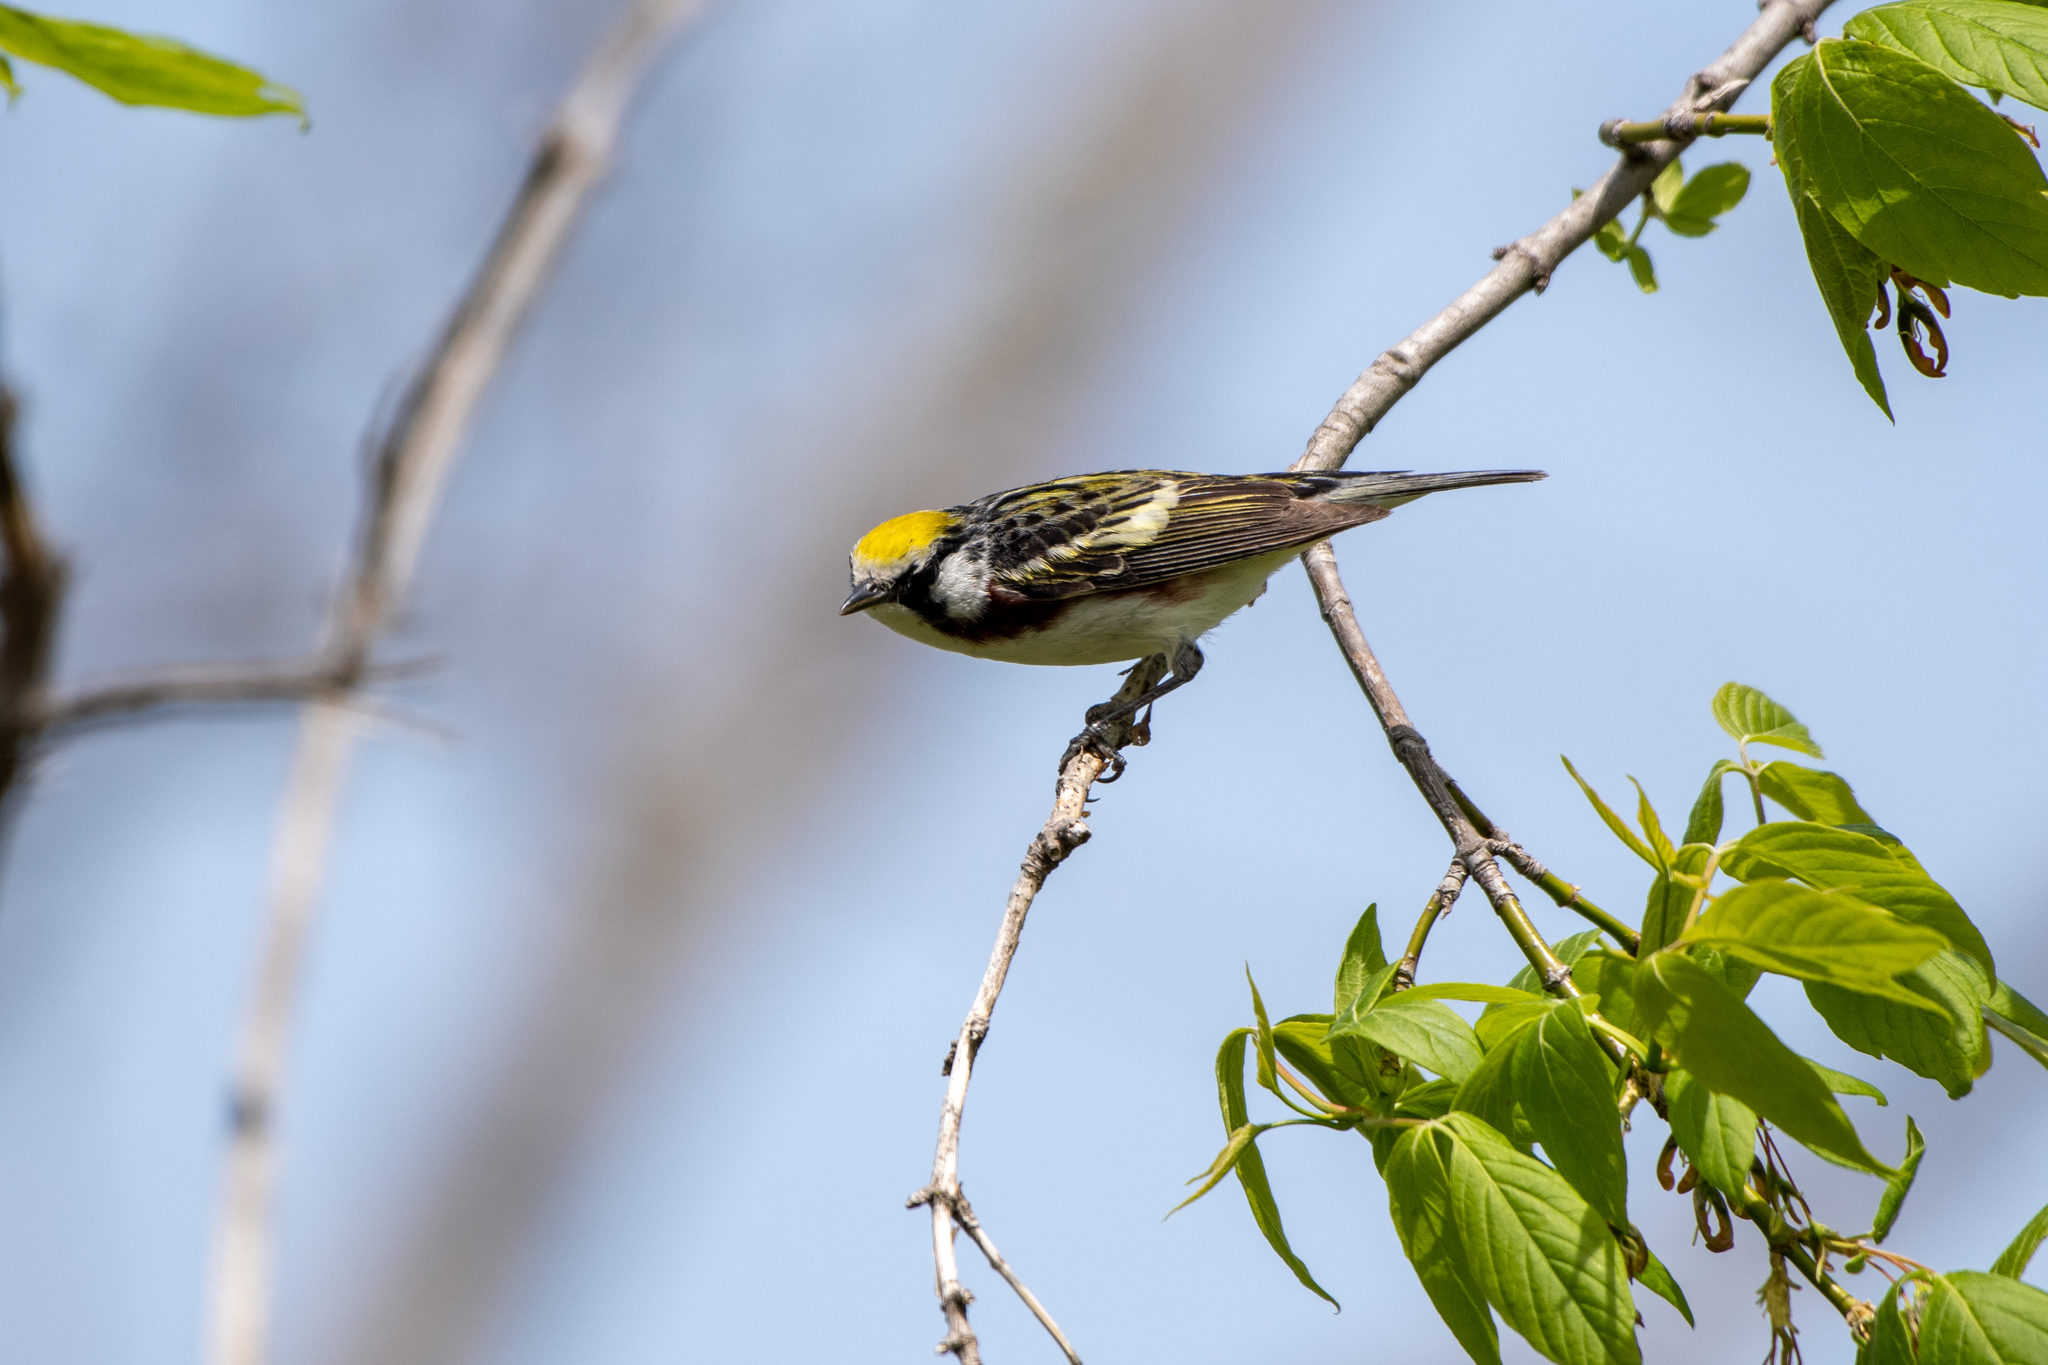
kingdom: Animalia
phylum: Chordata
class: Aves
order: Passeriformes
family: Parulidae
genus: Setophaga
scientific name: Setophaga pensylvanica
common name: Chestnut-sided warbler
